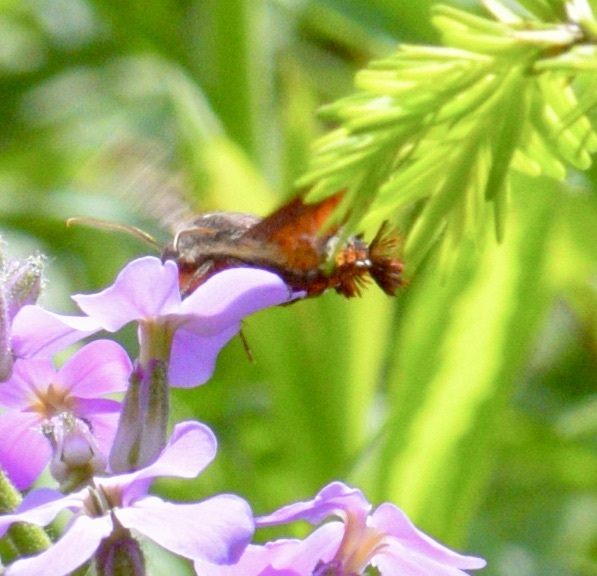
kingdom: Animalia
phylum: Arthropoda
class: Insecta
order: Lepidoptera
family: Sphingidae
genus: Amphion
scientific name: Amphion floridensis
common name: Nessus sphinx
